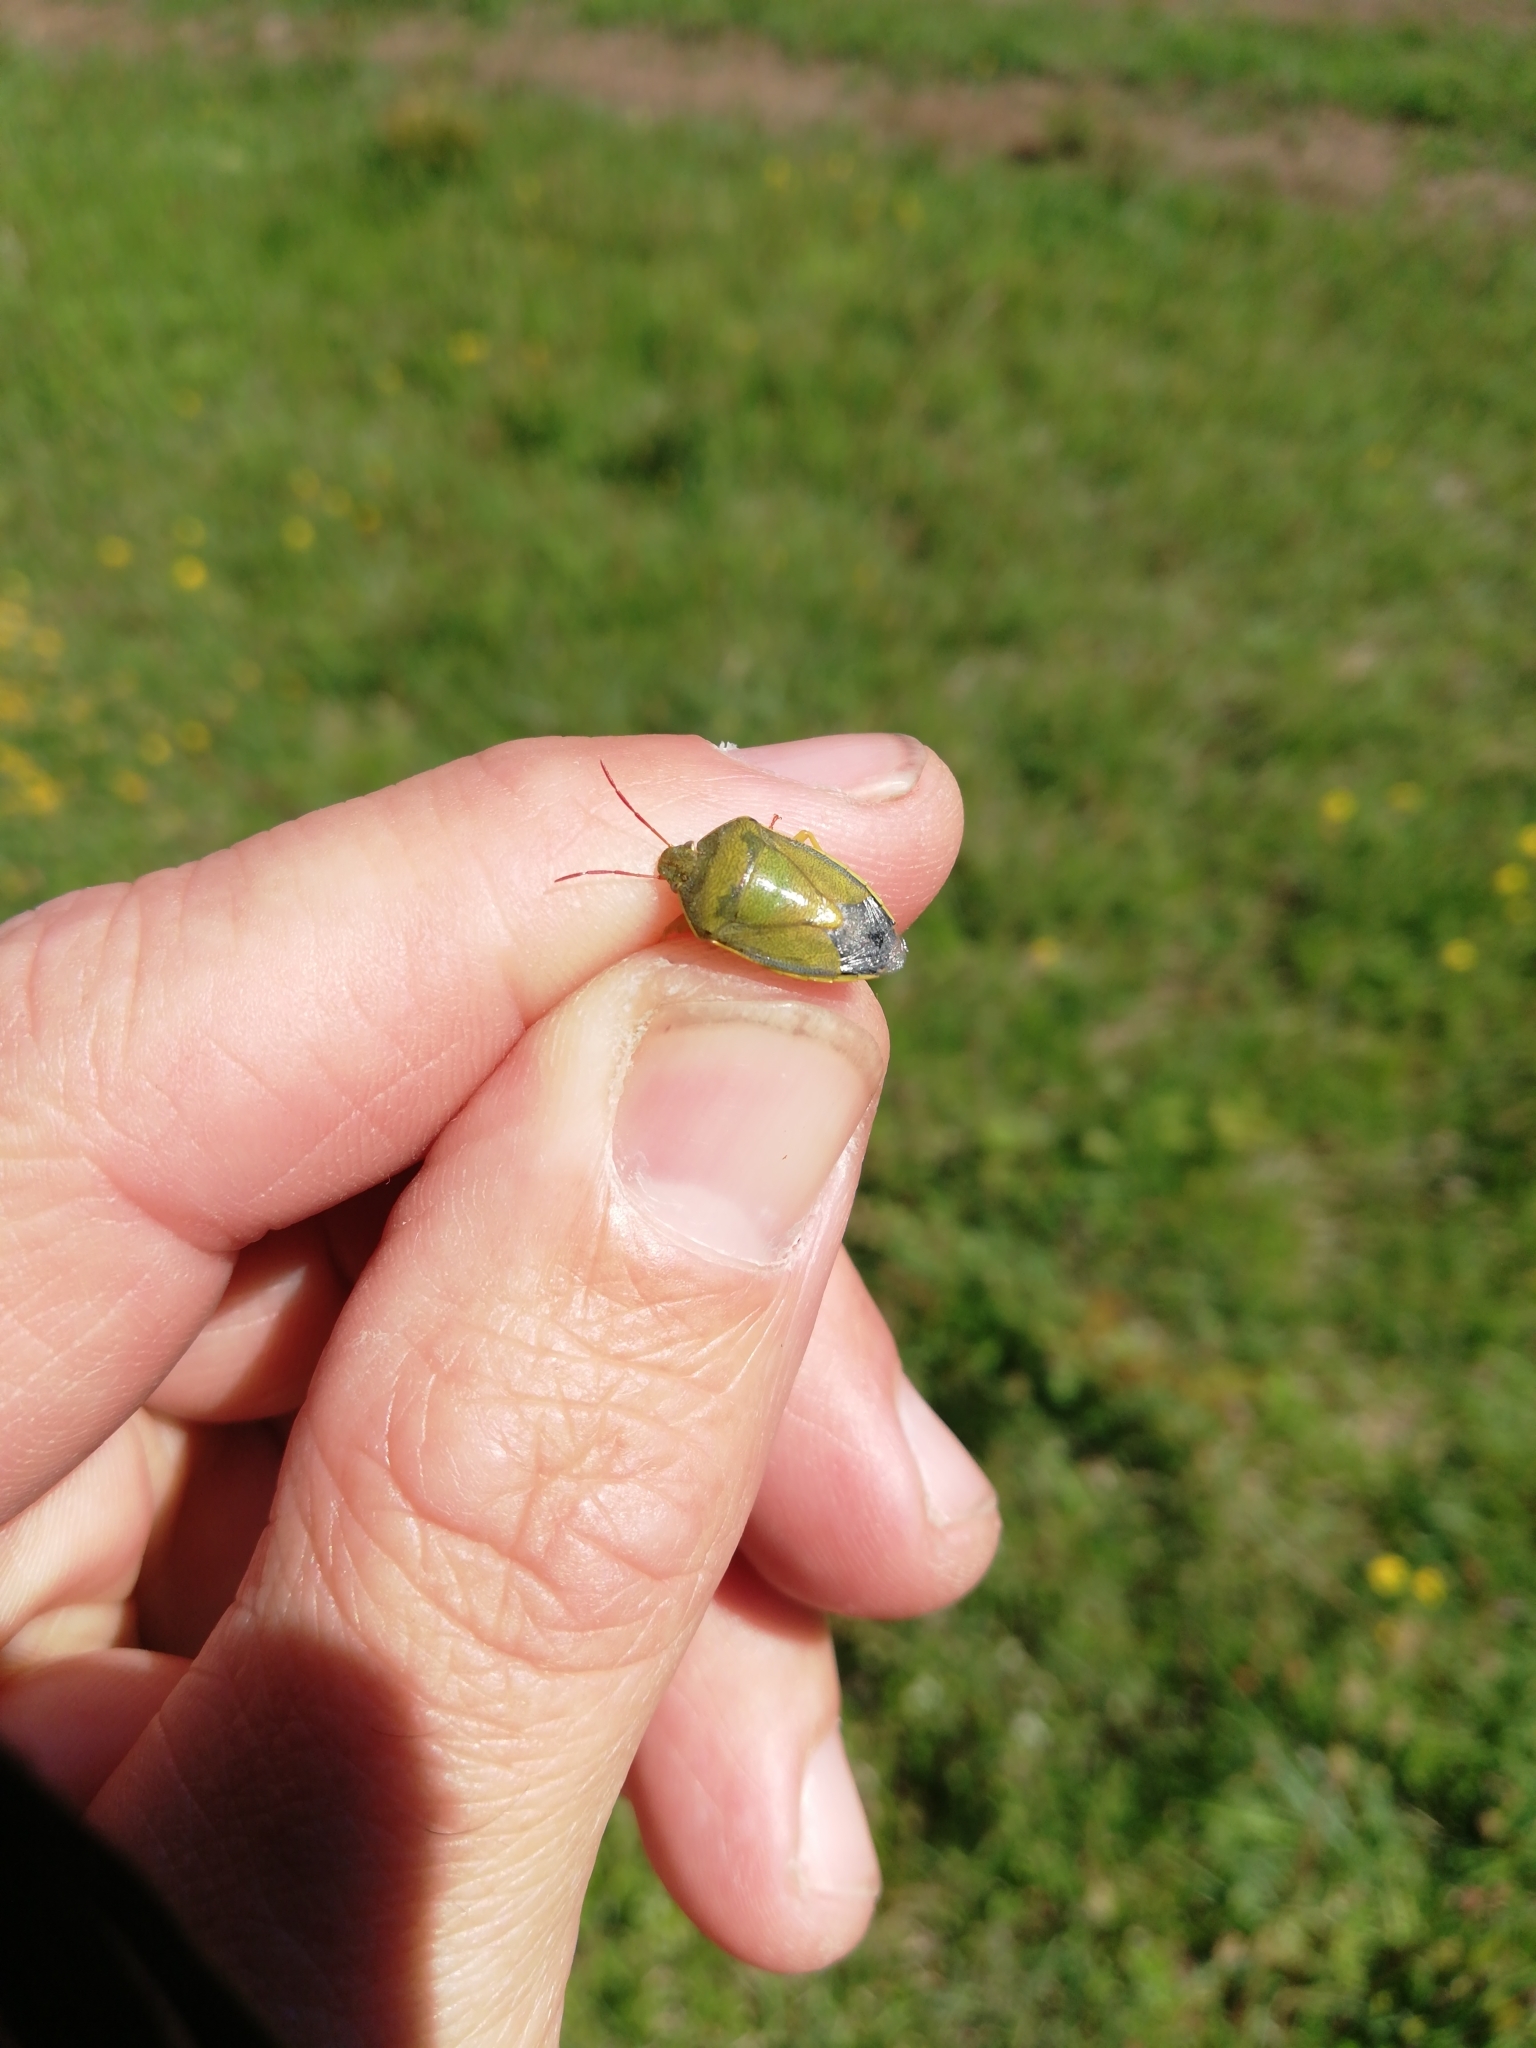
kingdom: Animalia
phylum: Arthropoda
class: Insecta
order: Hemiptera
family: Pentatomidae
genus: Piezodorus
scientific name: Piezodorus lituratus
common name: Stink bug
